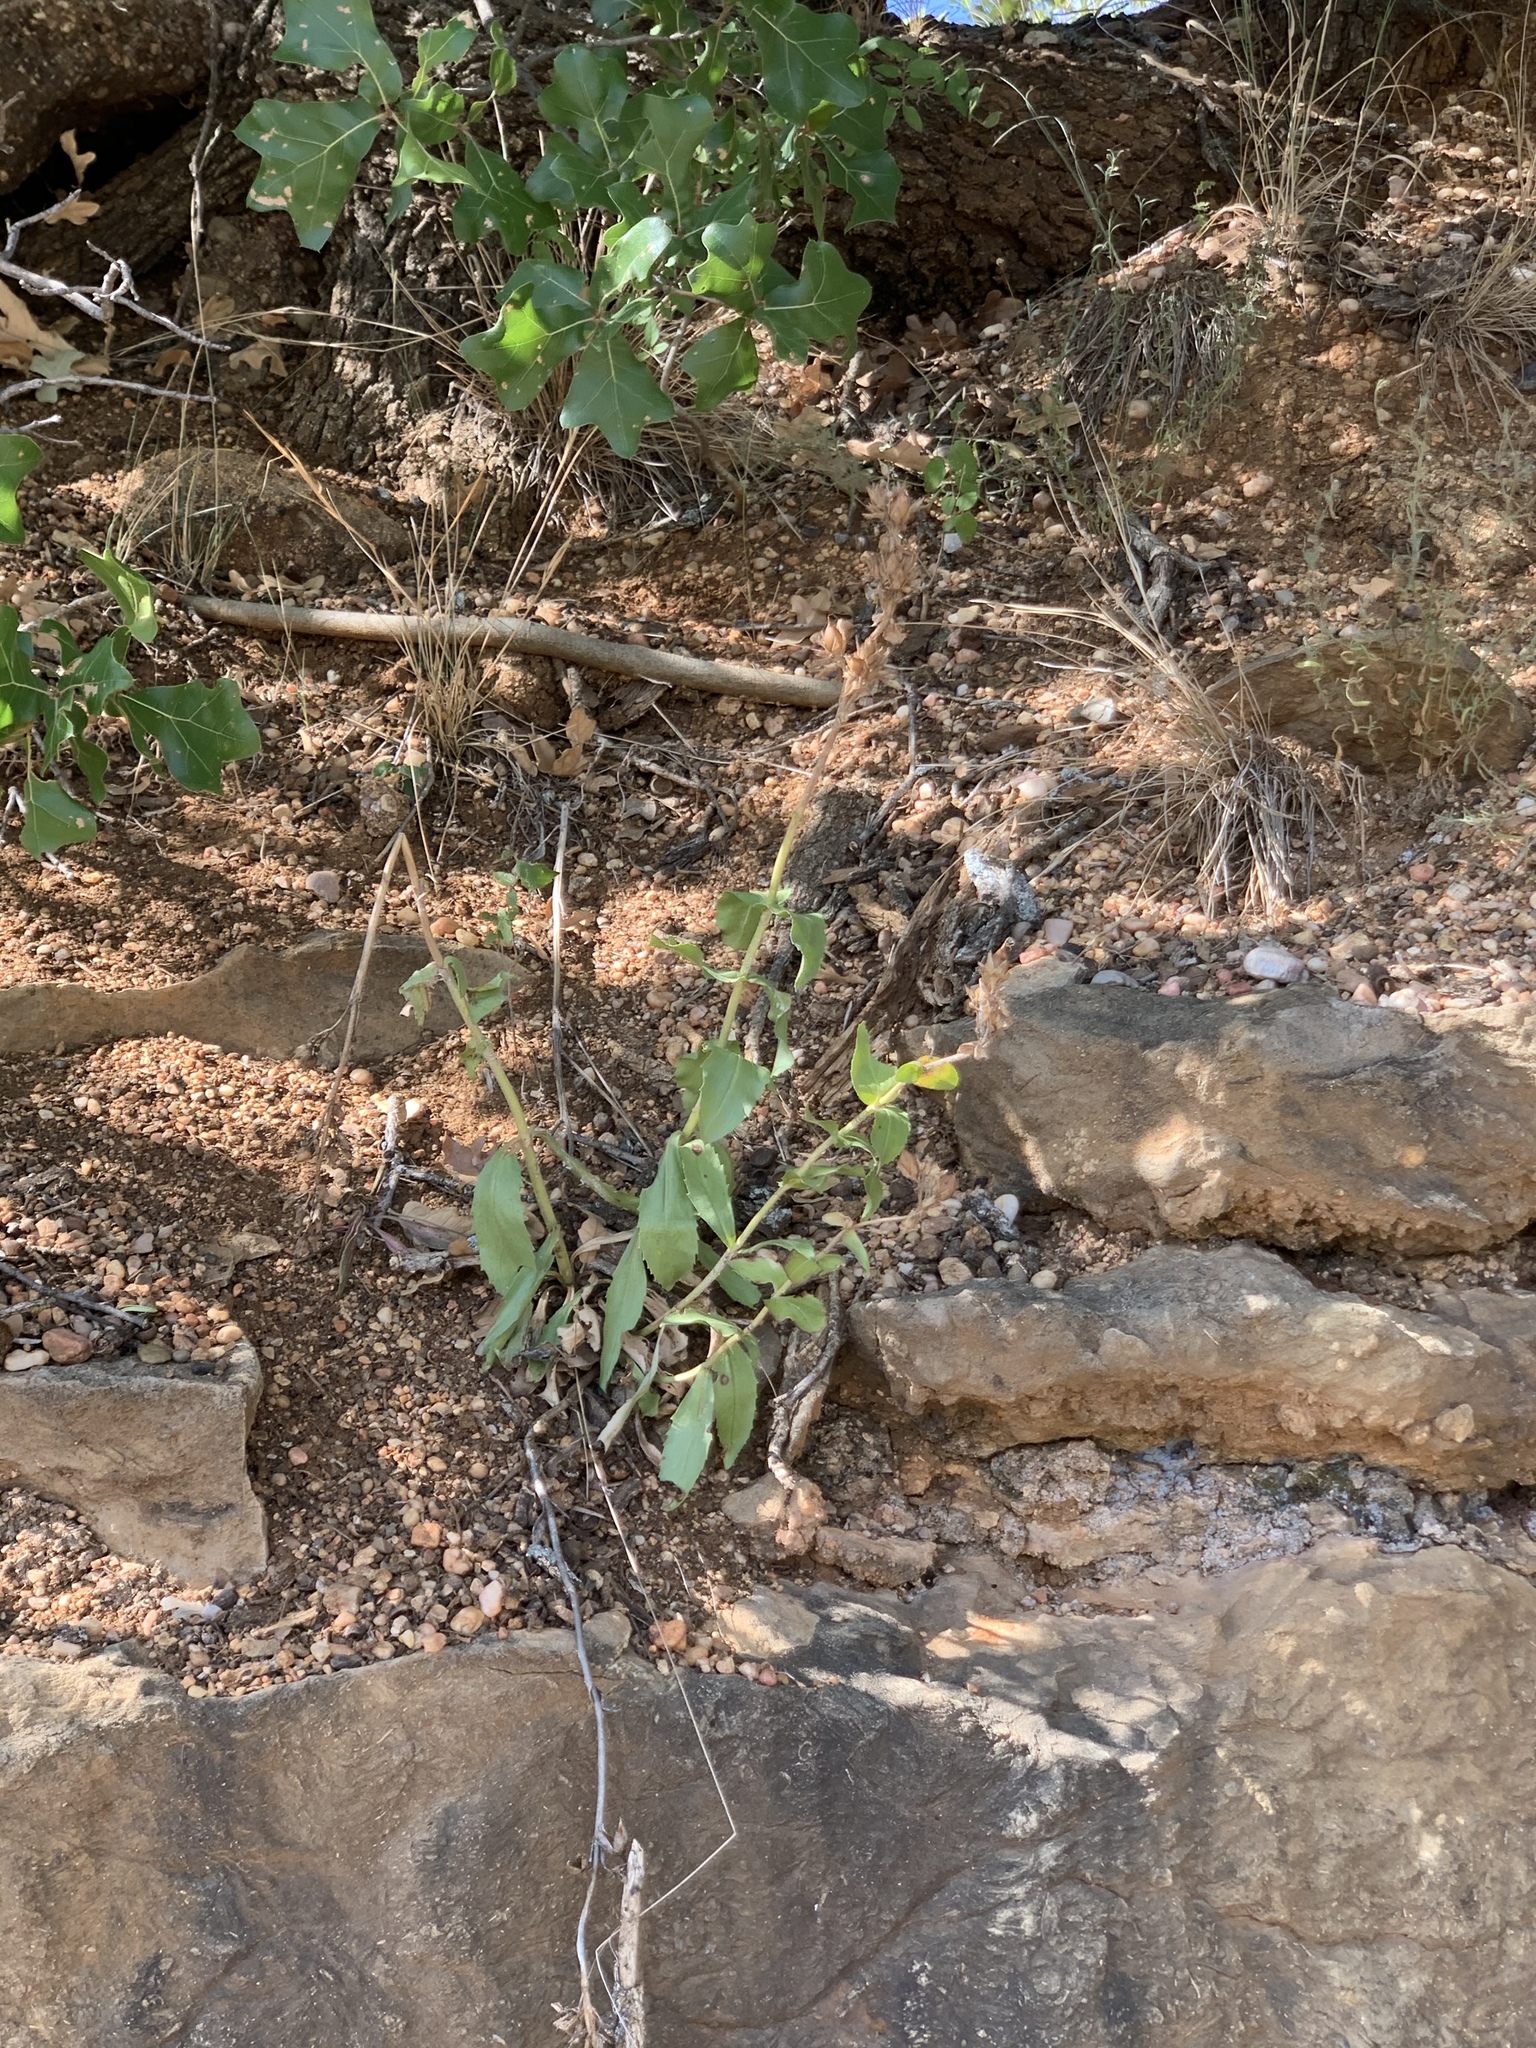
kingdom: Plantae
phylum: Tracheophyta
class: Magnoliopsida
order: Lamiales
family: Plantaginaceae
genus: Penstemon
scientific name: Penstemon cobaea
